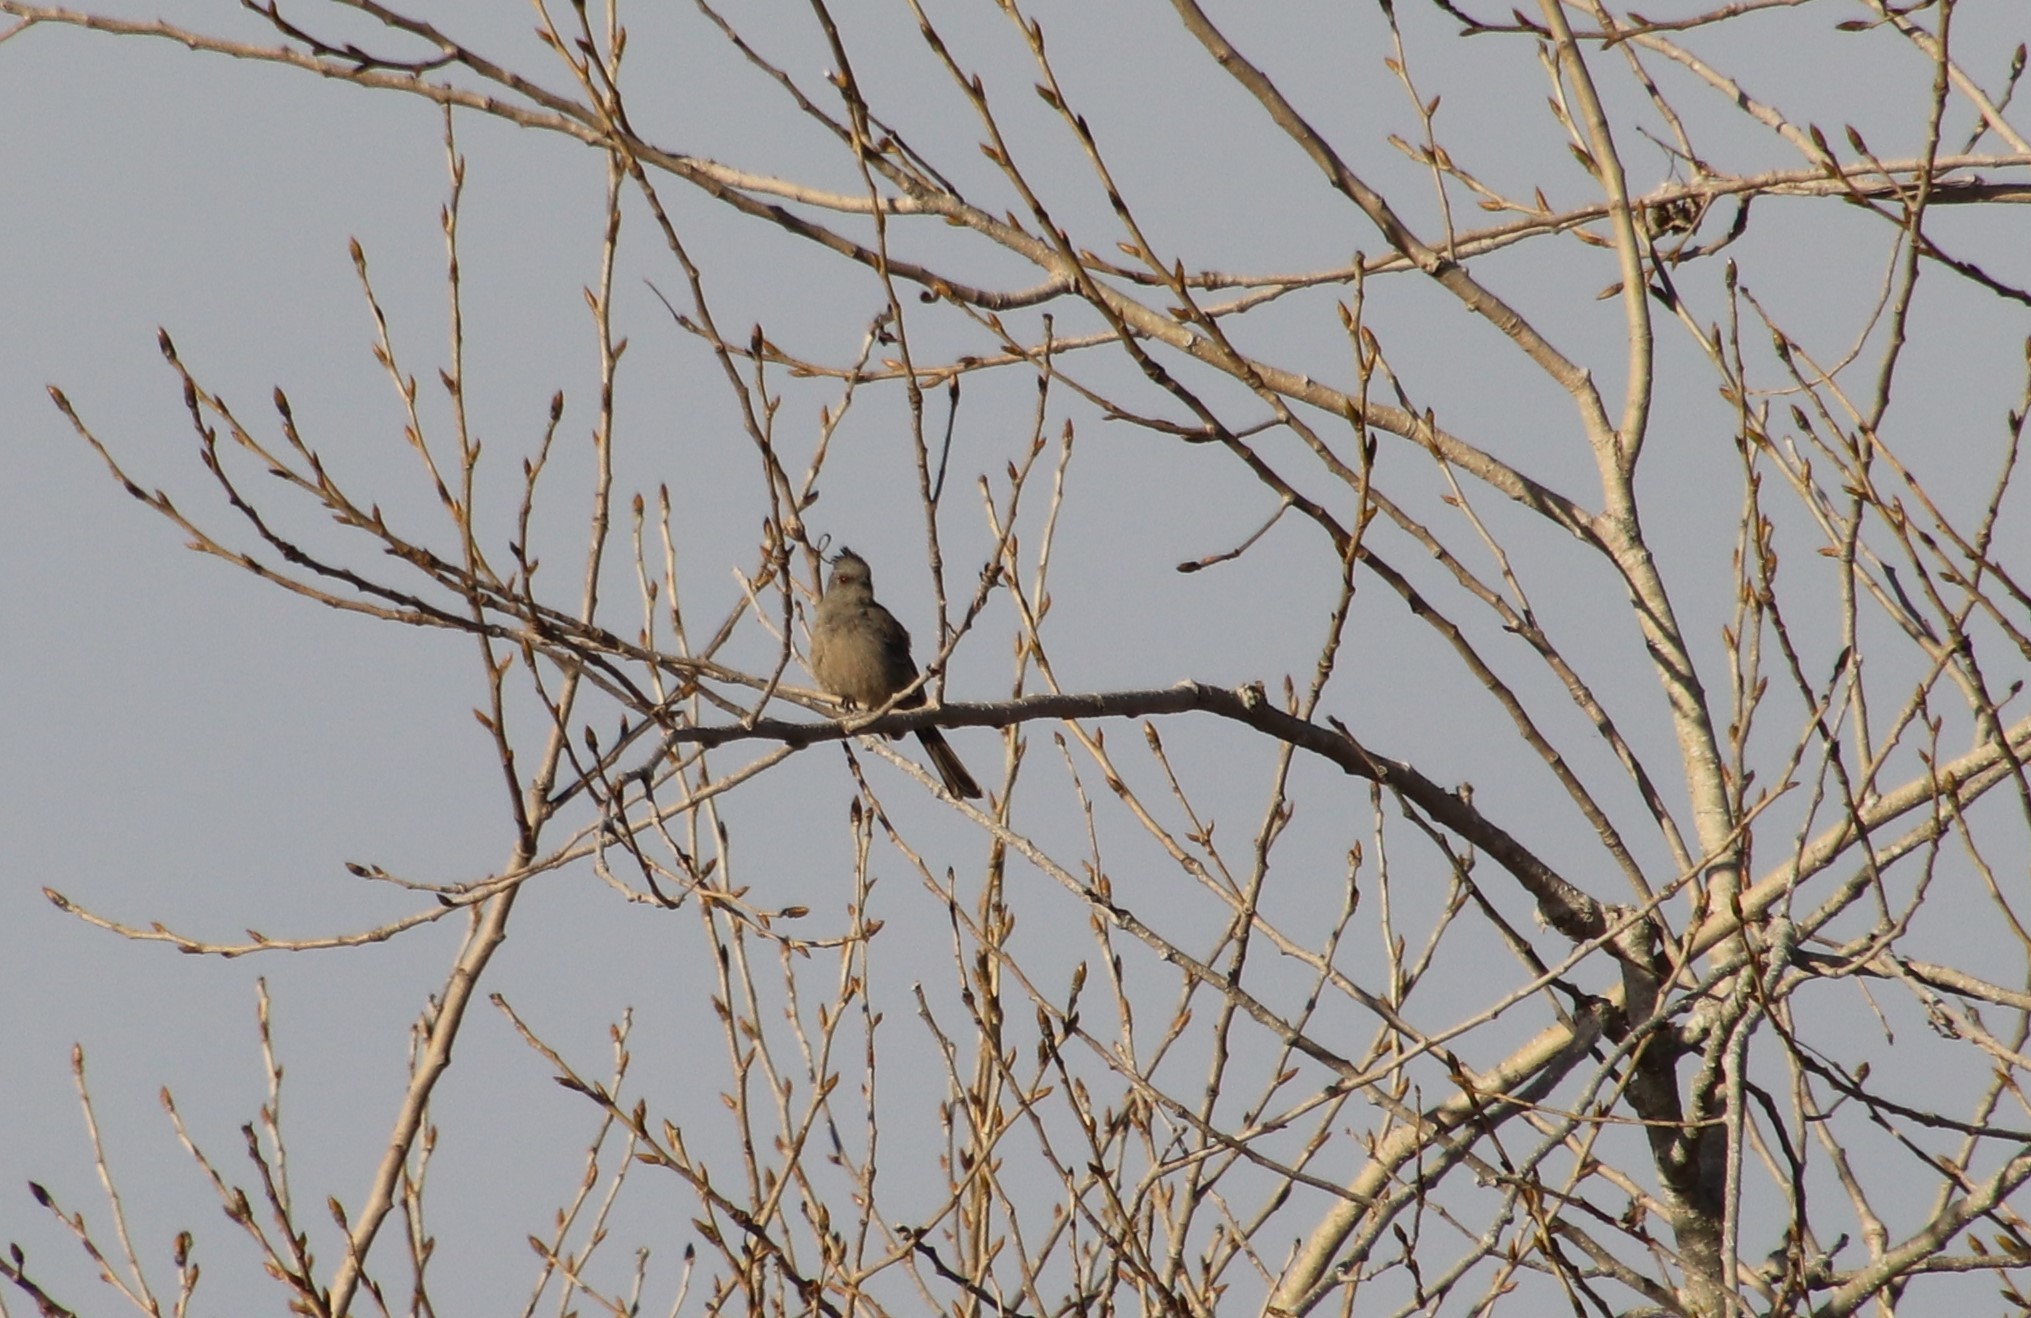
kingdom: Animalia
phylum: Chordata
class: Aves
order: Passeriformes
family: Ptilogonatidae
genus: Phainopepla
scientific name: Phainopepla nitens
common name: Phainopepla
